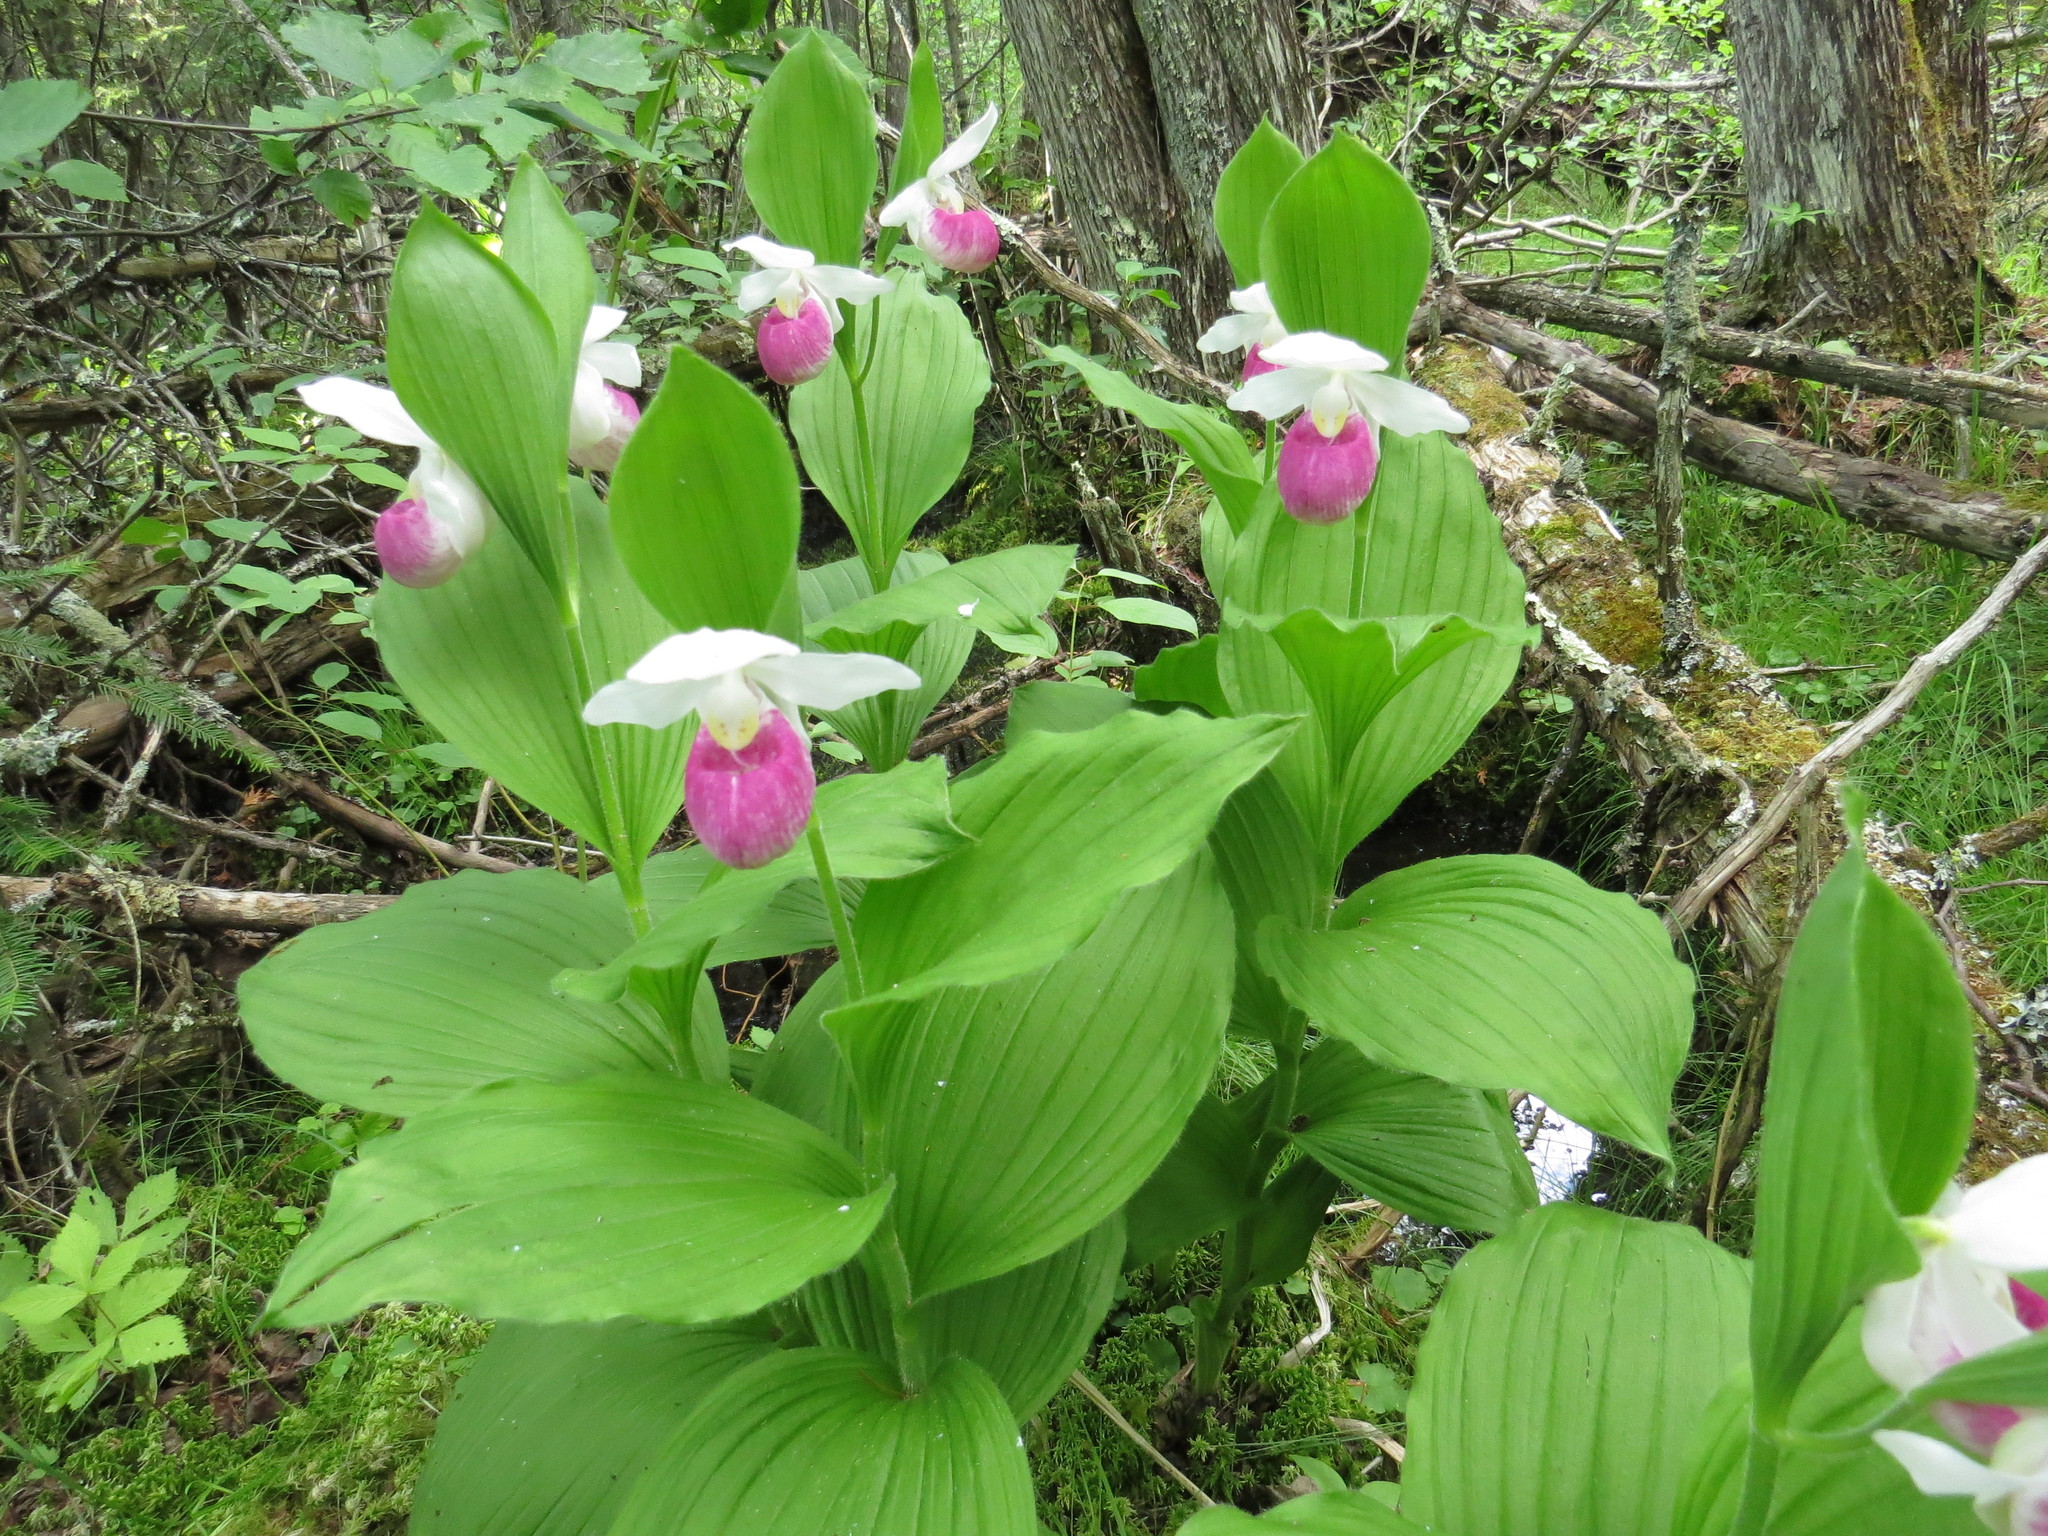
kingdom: Plantae
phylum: Tracheophyta
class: Liliopsida
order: Asparagales
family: Orchidaceae
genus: Cypripedium
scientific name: Cypripedium reginae
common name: Queen lady's-slipper
